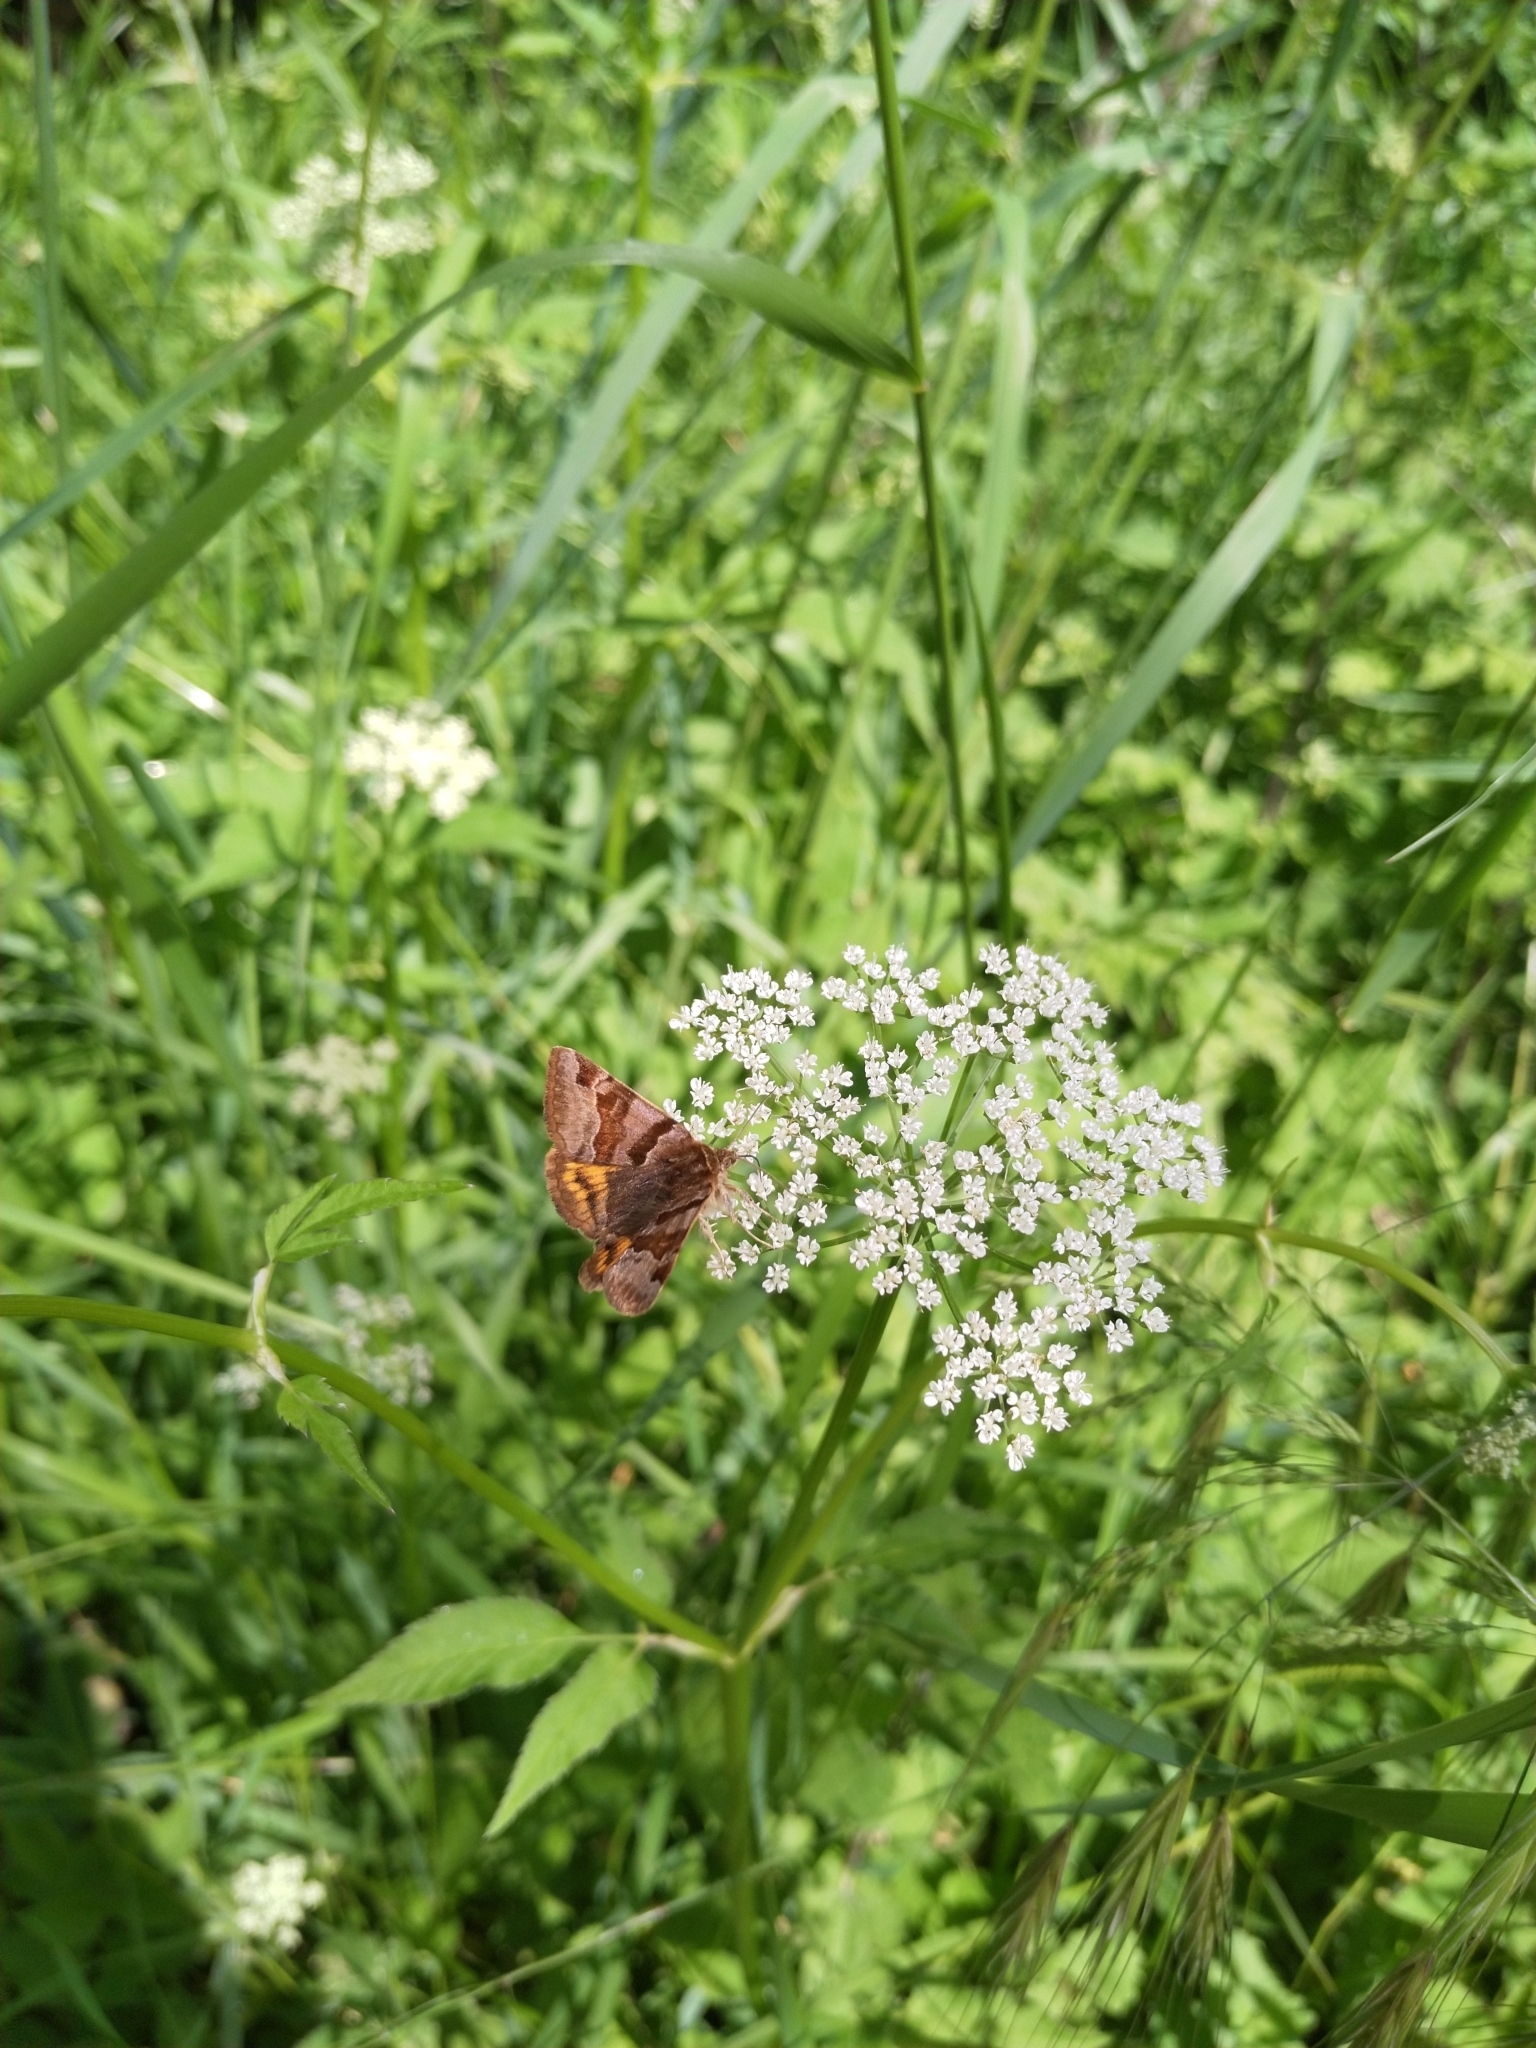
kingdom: Animalia
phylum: Arthropoda
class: Insecta
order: Lepidoptera
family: Erebidae
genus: Euclidia
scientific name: Euclidia glyphica
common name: Burnet companion
